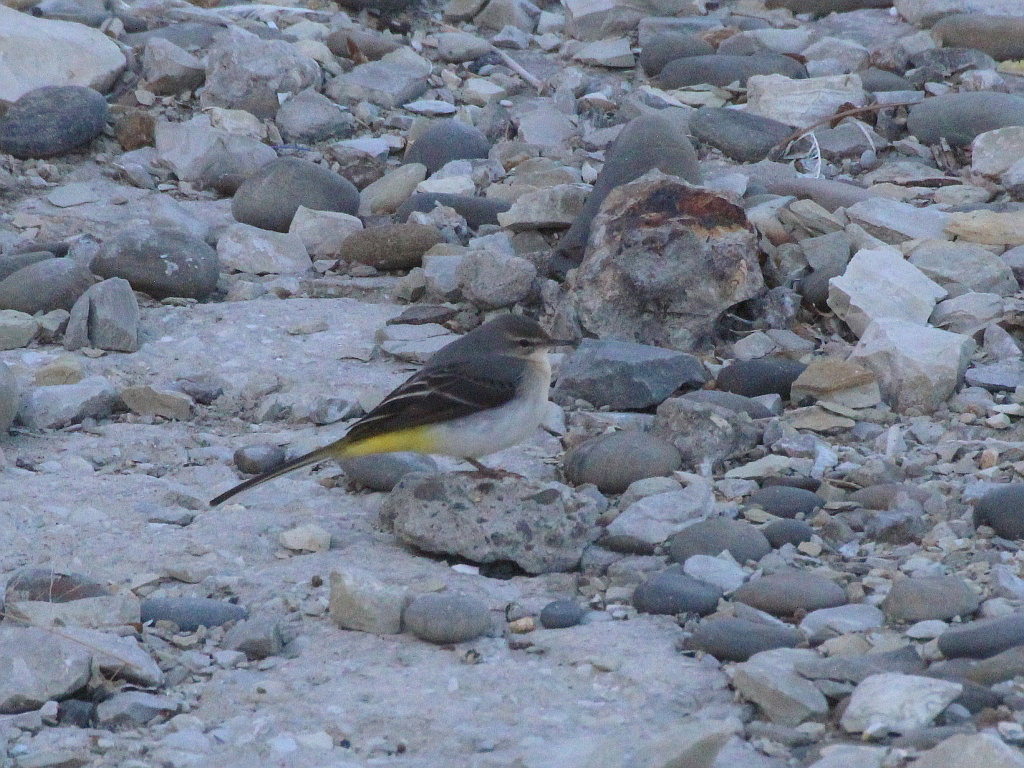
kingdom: Animalia
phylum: Chordata
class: Aves
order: Passeriformes
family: Motacillidae
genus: Motacilla
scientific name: Motacilla cinerea
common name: Grey wagtail
